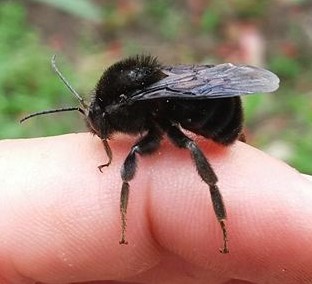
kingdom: Animalia
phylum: Arthropoda
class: Insecta
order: Hymenoptera
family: Apidae
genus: Bombus
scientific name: Bombus pauloensis
